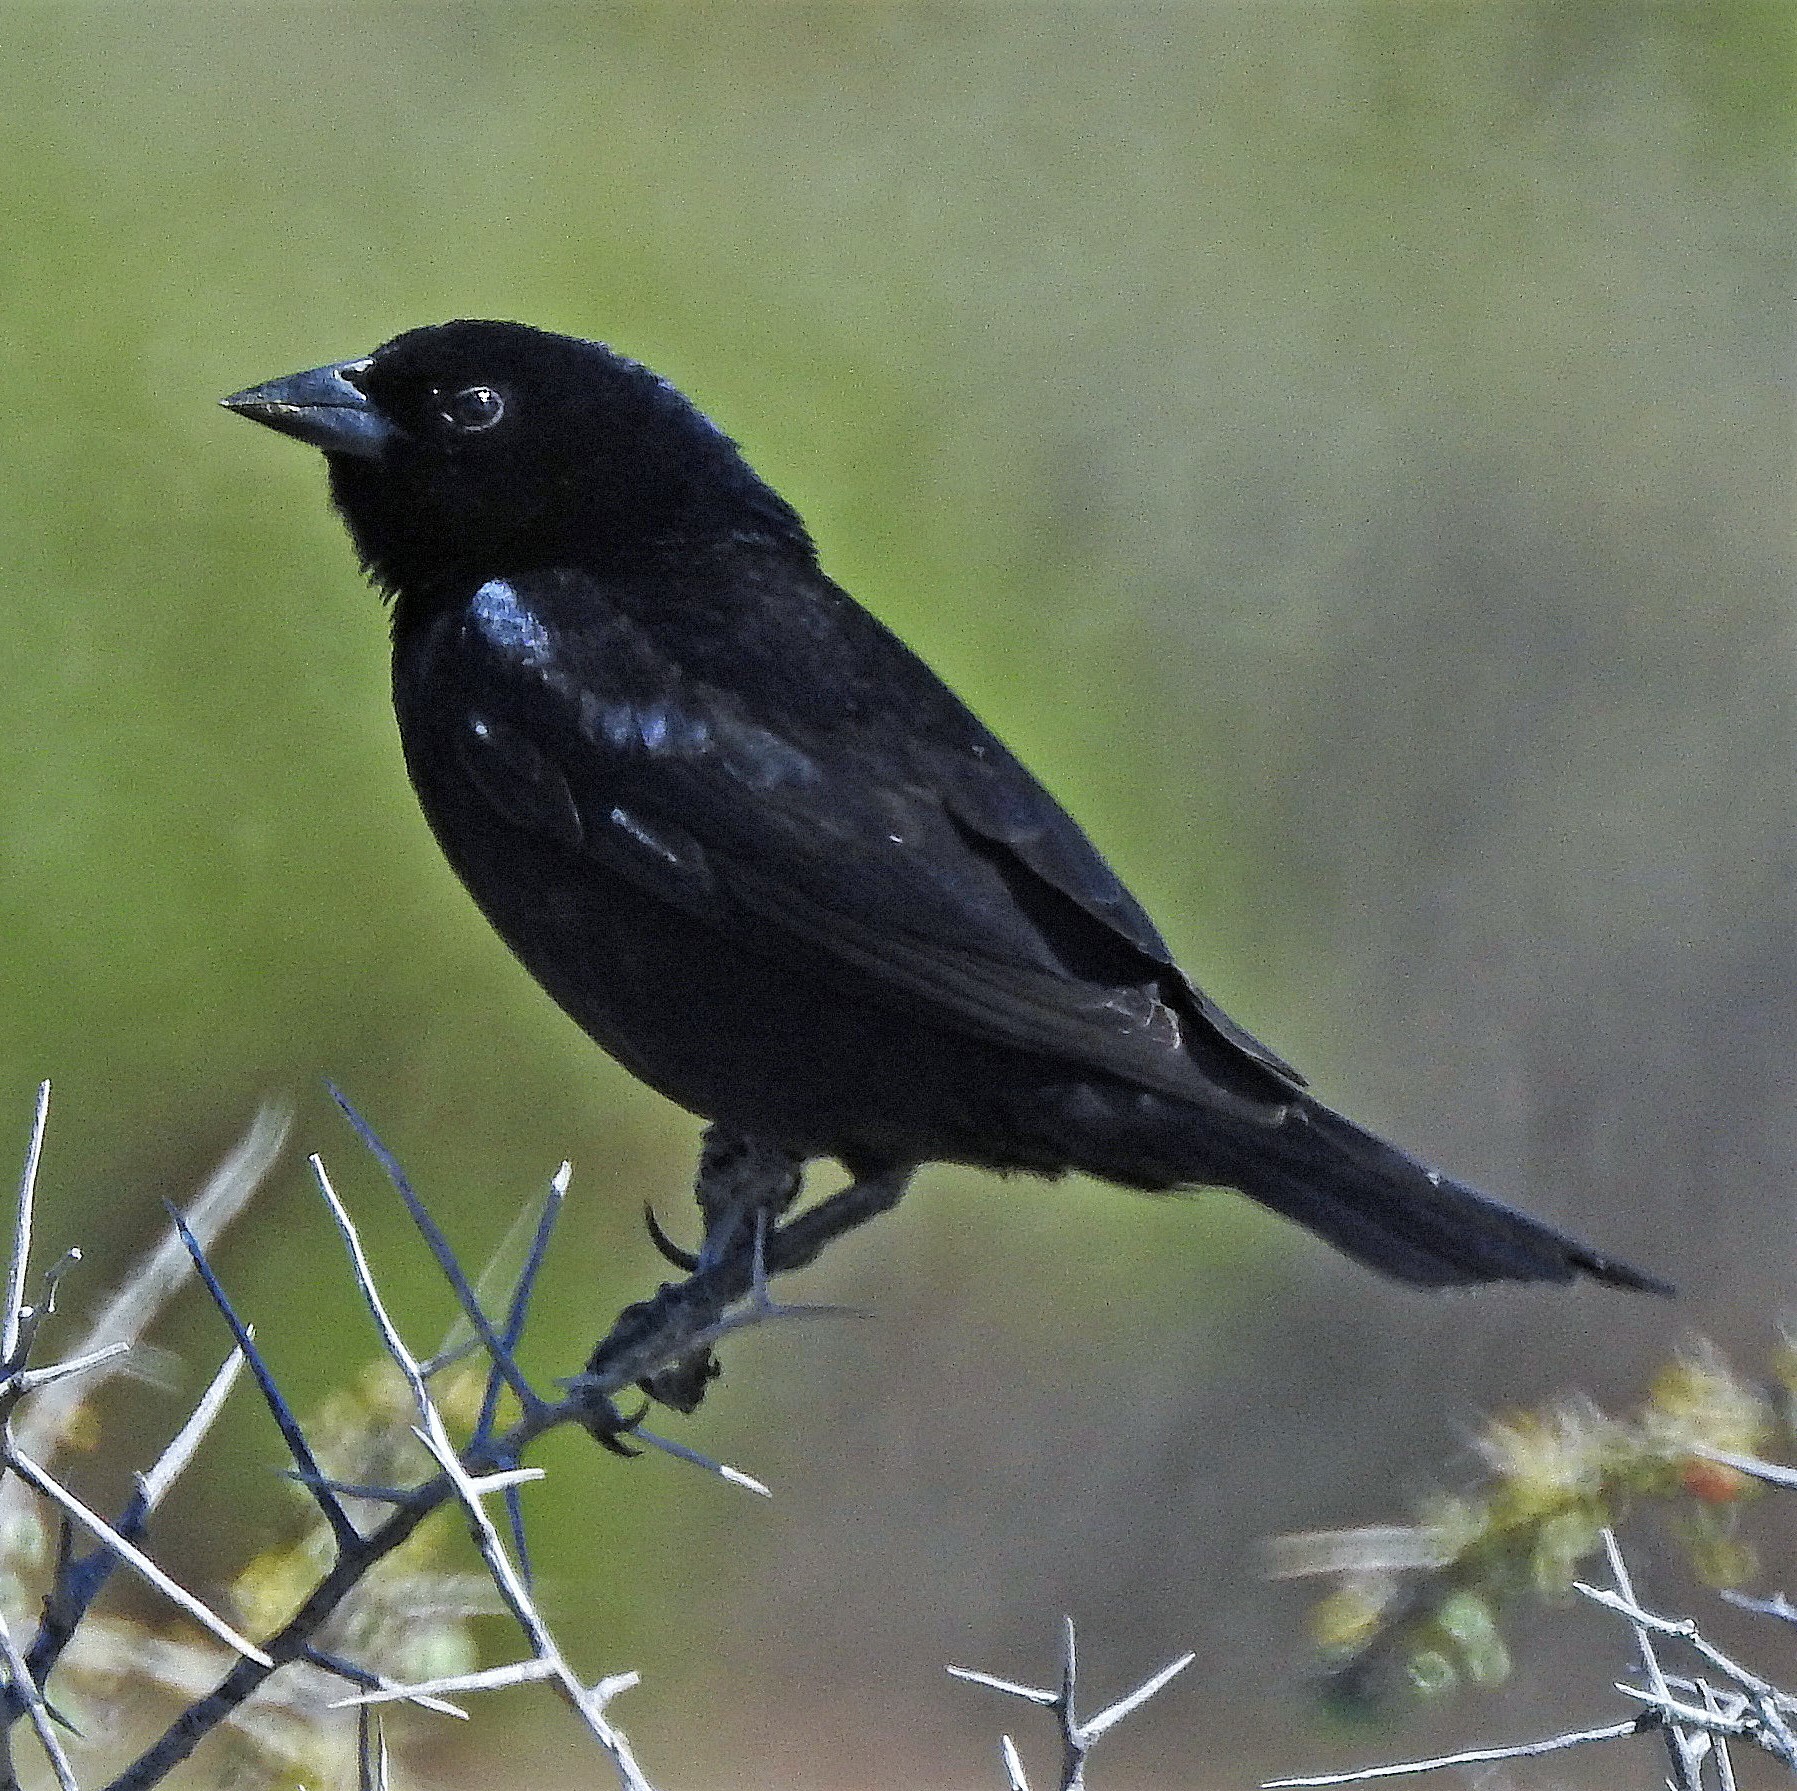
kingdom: Animalia
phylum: Chordata
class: Aves
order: Passeriformes
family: Icteridae
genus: Molothrus
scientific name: Molothrus bonariensis
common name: Shiny cowbird
